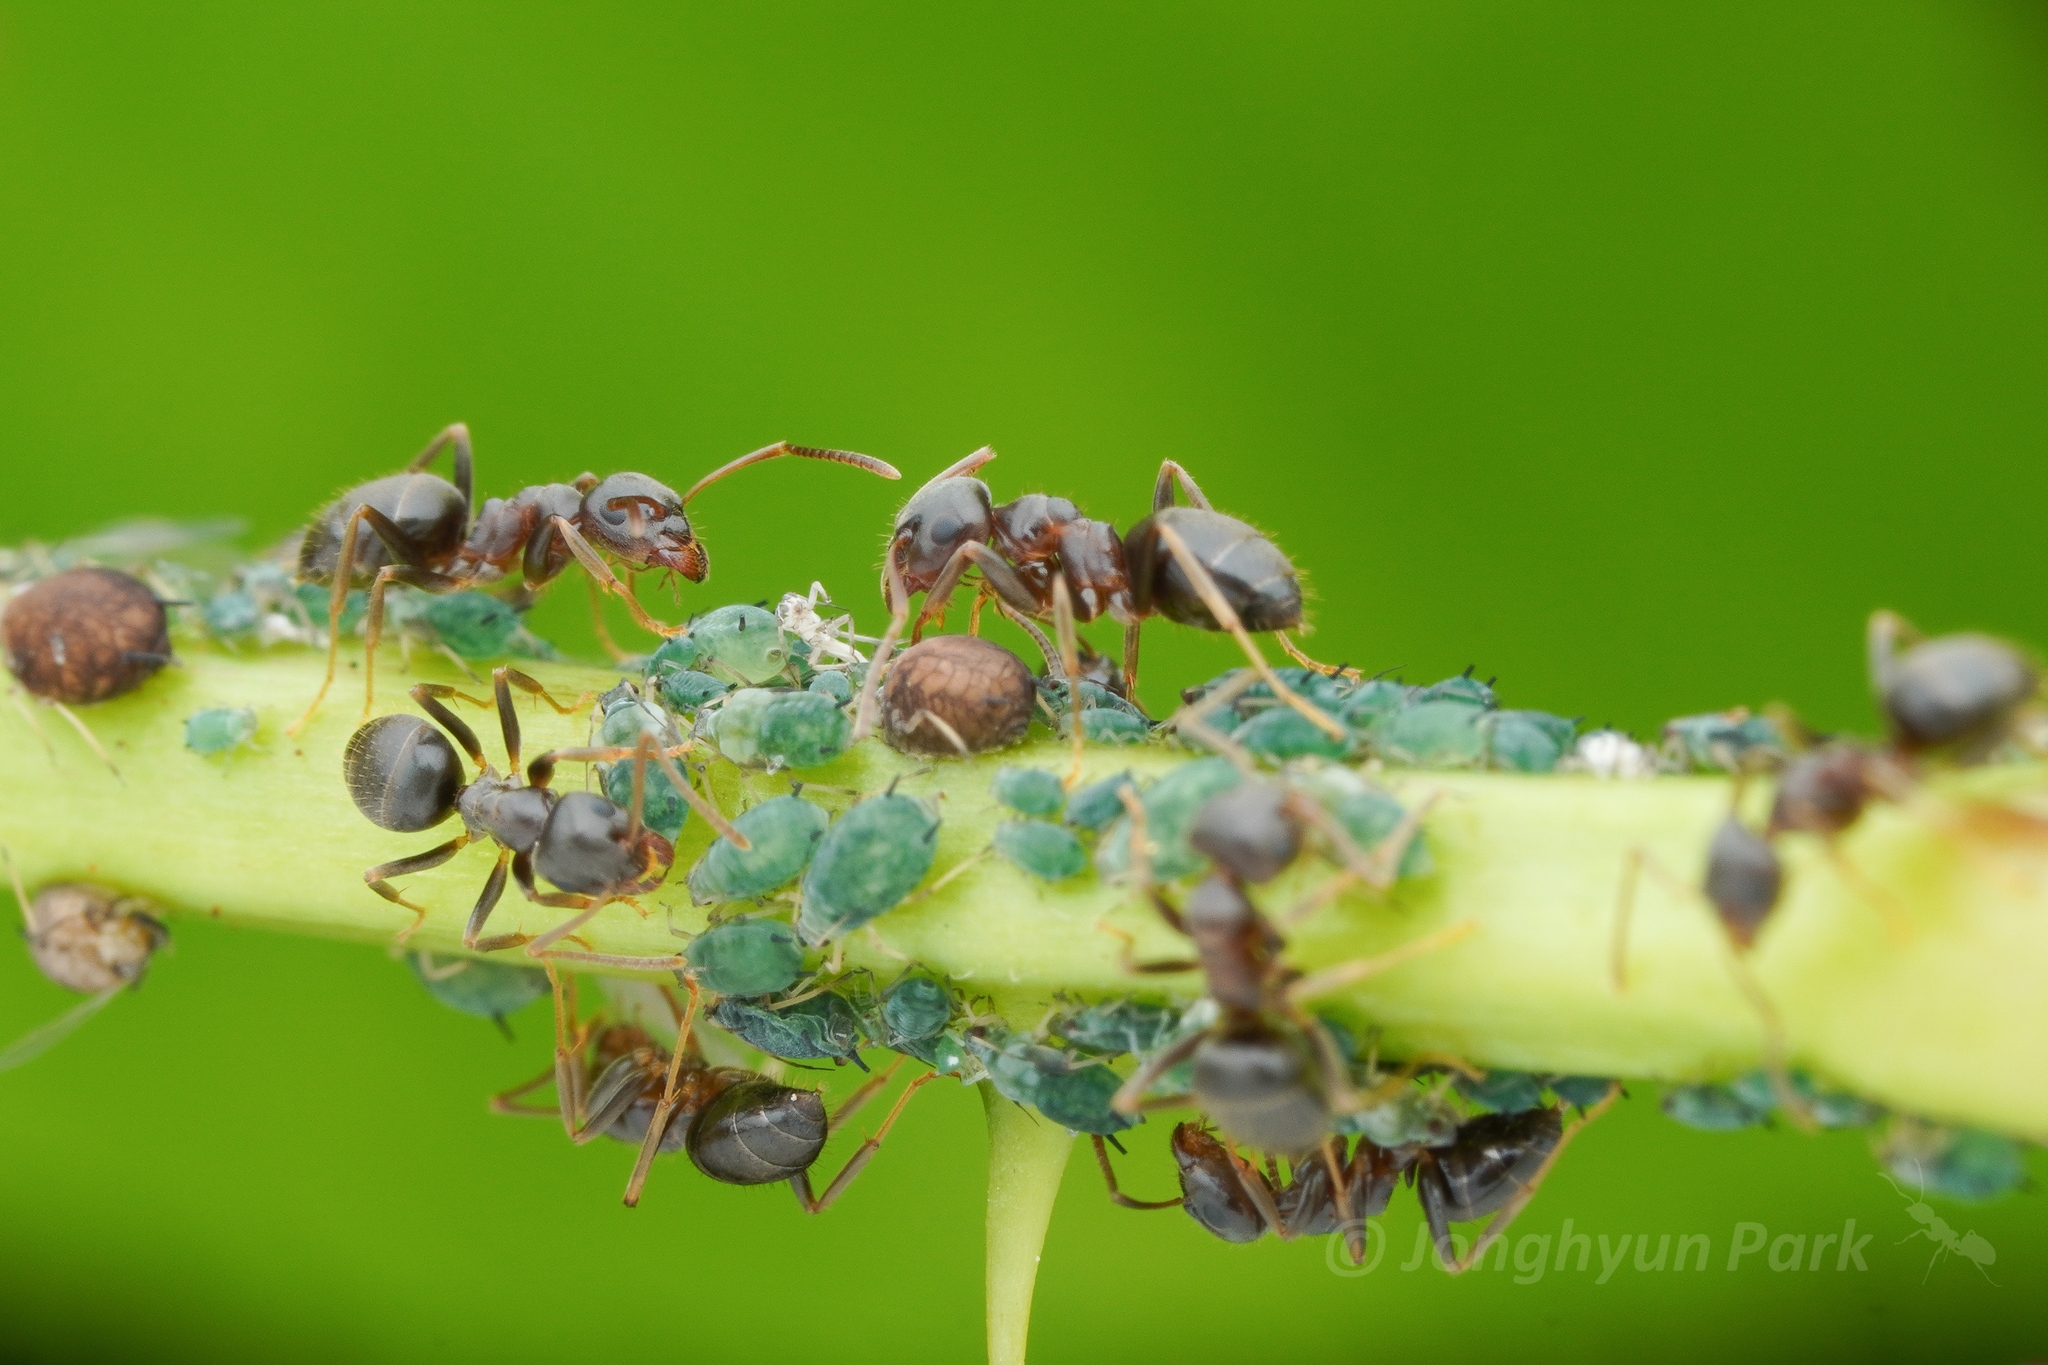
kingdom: Animalia
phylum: Arthropoda
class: Insecta
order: Hymenoptera
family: Formicidae
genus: Lasius
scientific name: Lasius
